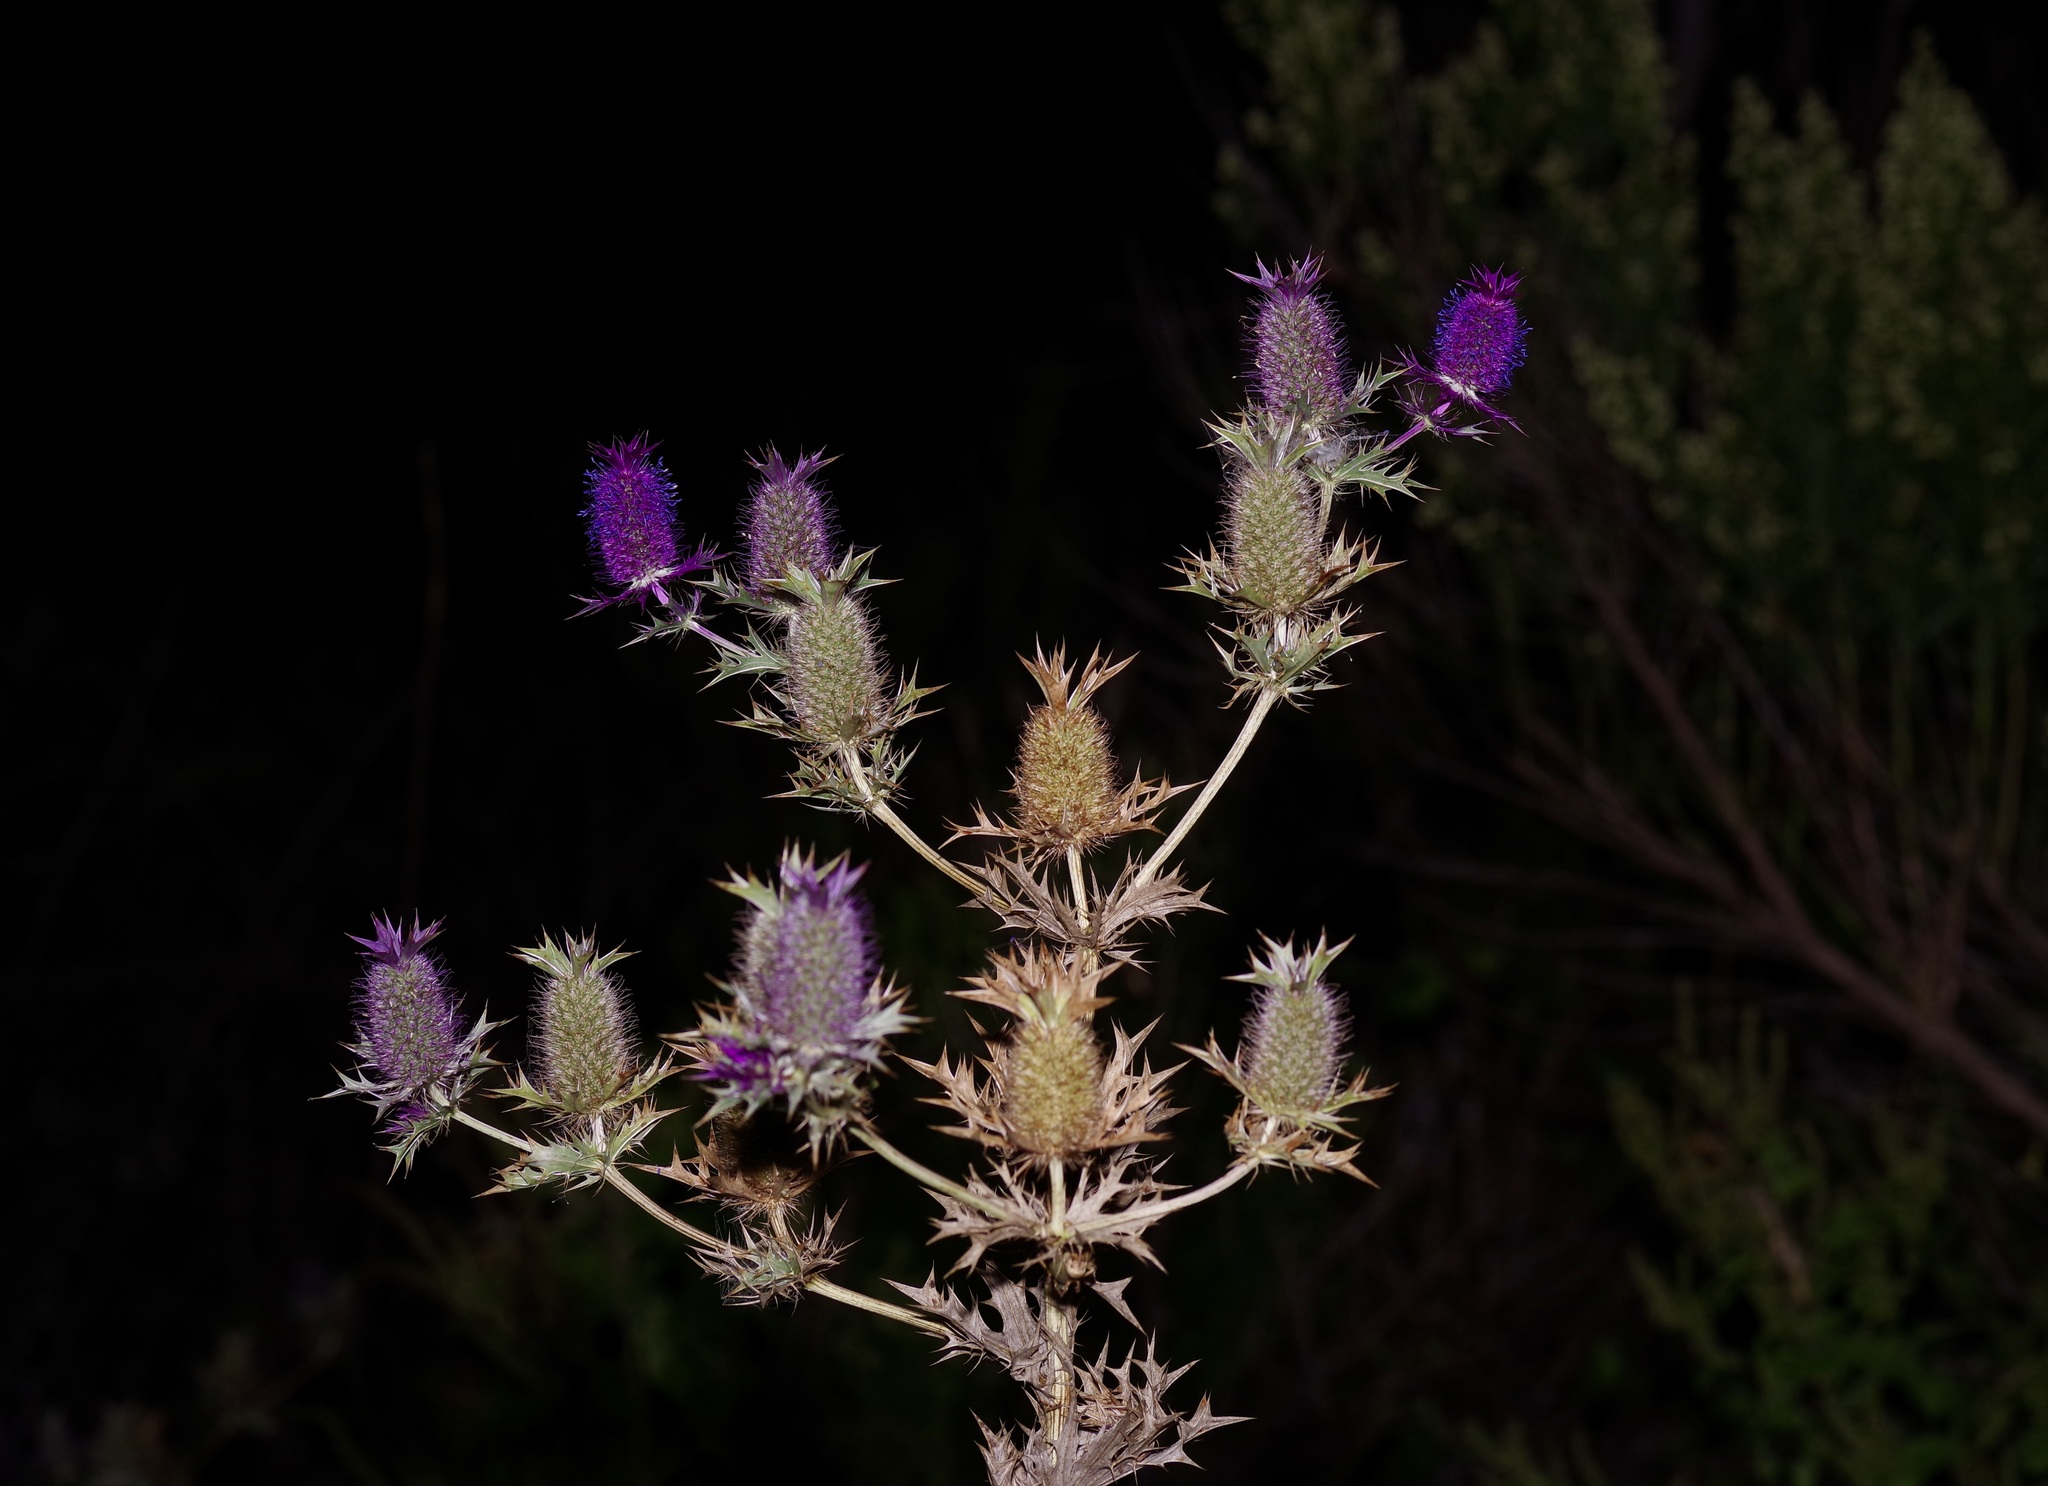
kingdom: Plantae
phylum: Tracheophyta
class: Magnoliopsida
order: Apiales
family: Apiaceae
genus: Eryngium
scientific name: Eryngium leavenworthii
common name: Leavenworth's eryngo
